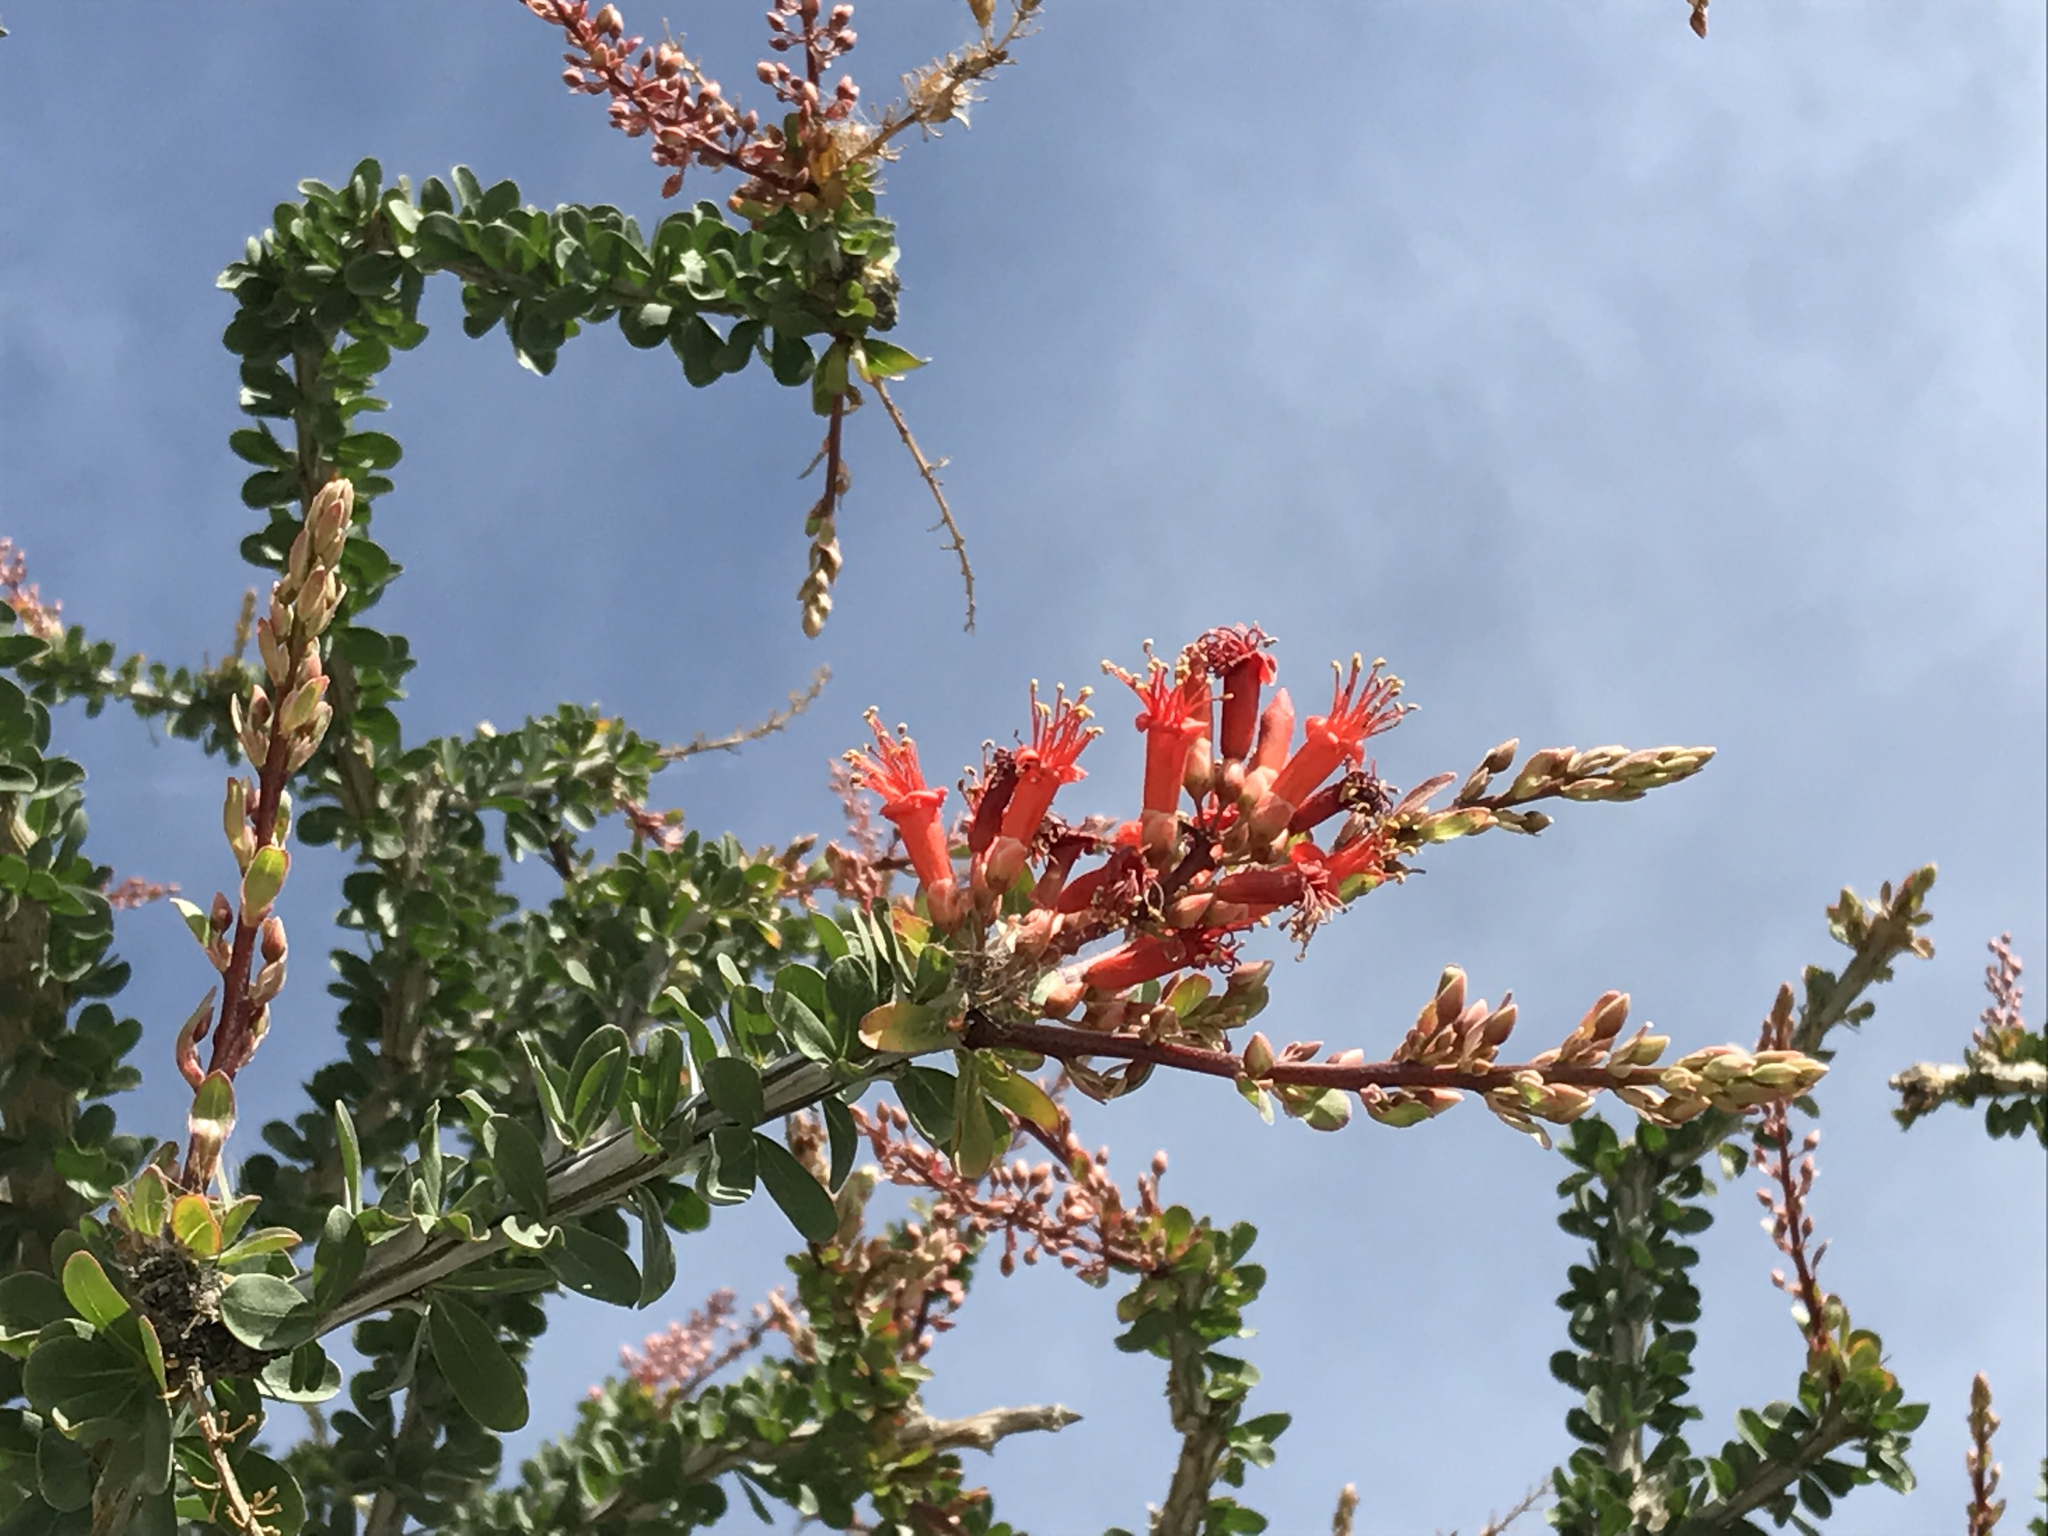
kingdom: Plantae
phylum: Tracheophyta
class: Magnoliopsida
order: Ericales
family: Fouquieriaceae
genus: Fouquieria
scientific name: Fouquieria splendens
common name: Vine-cactus
